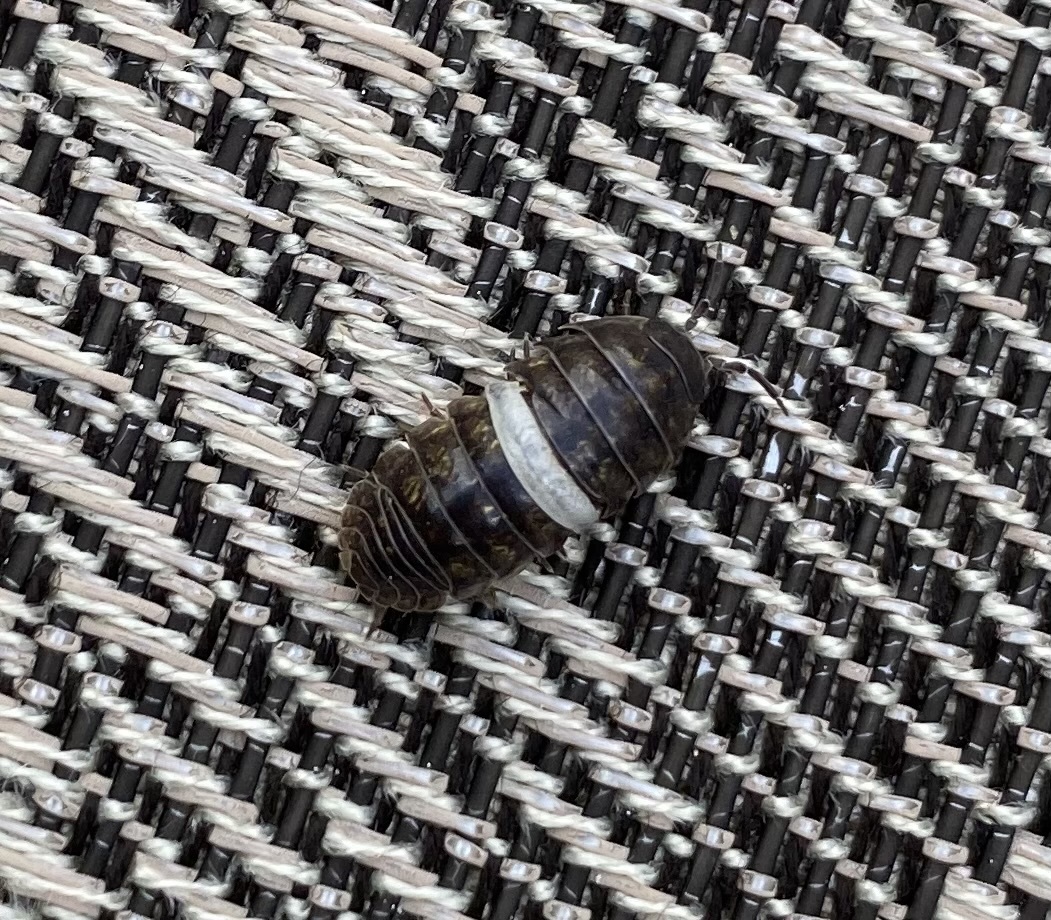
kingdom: Animalia
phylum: Arthropoda
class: Malacostraca
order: Isopoda
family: Armadillidiidae
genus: Armadillidium
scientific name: Armadillidium vulgare
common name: Common pill woodlouse
